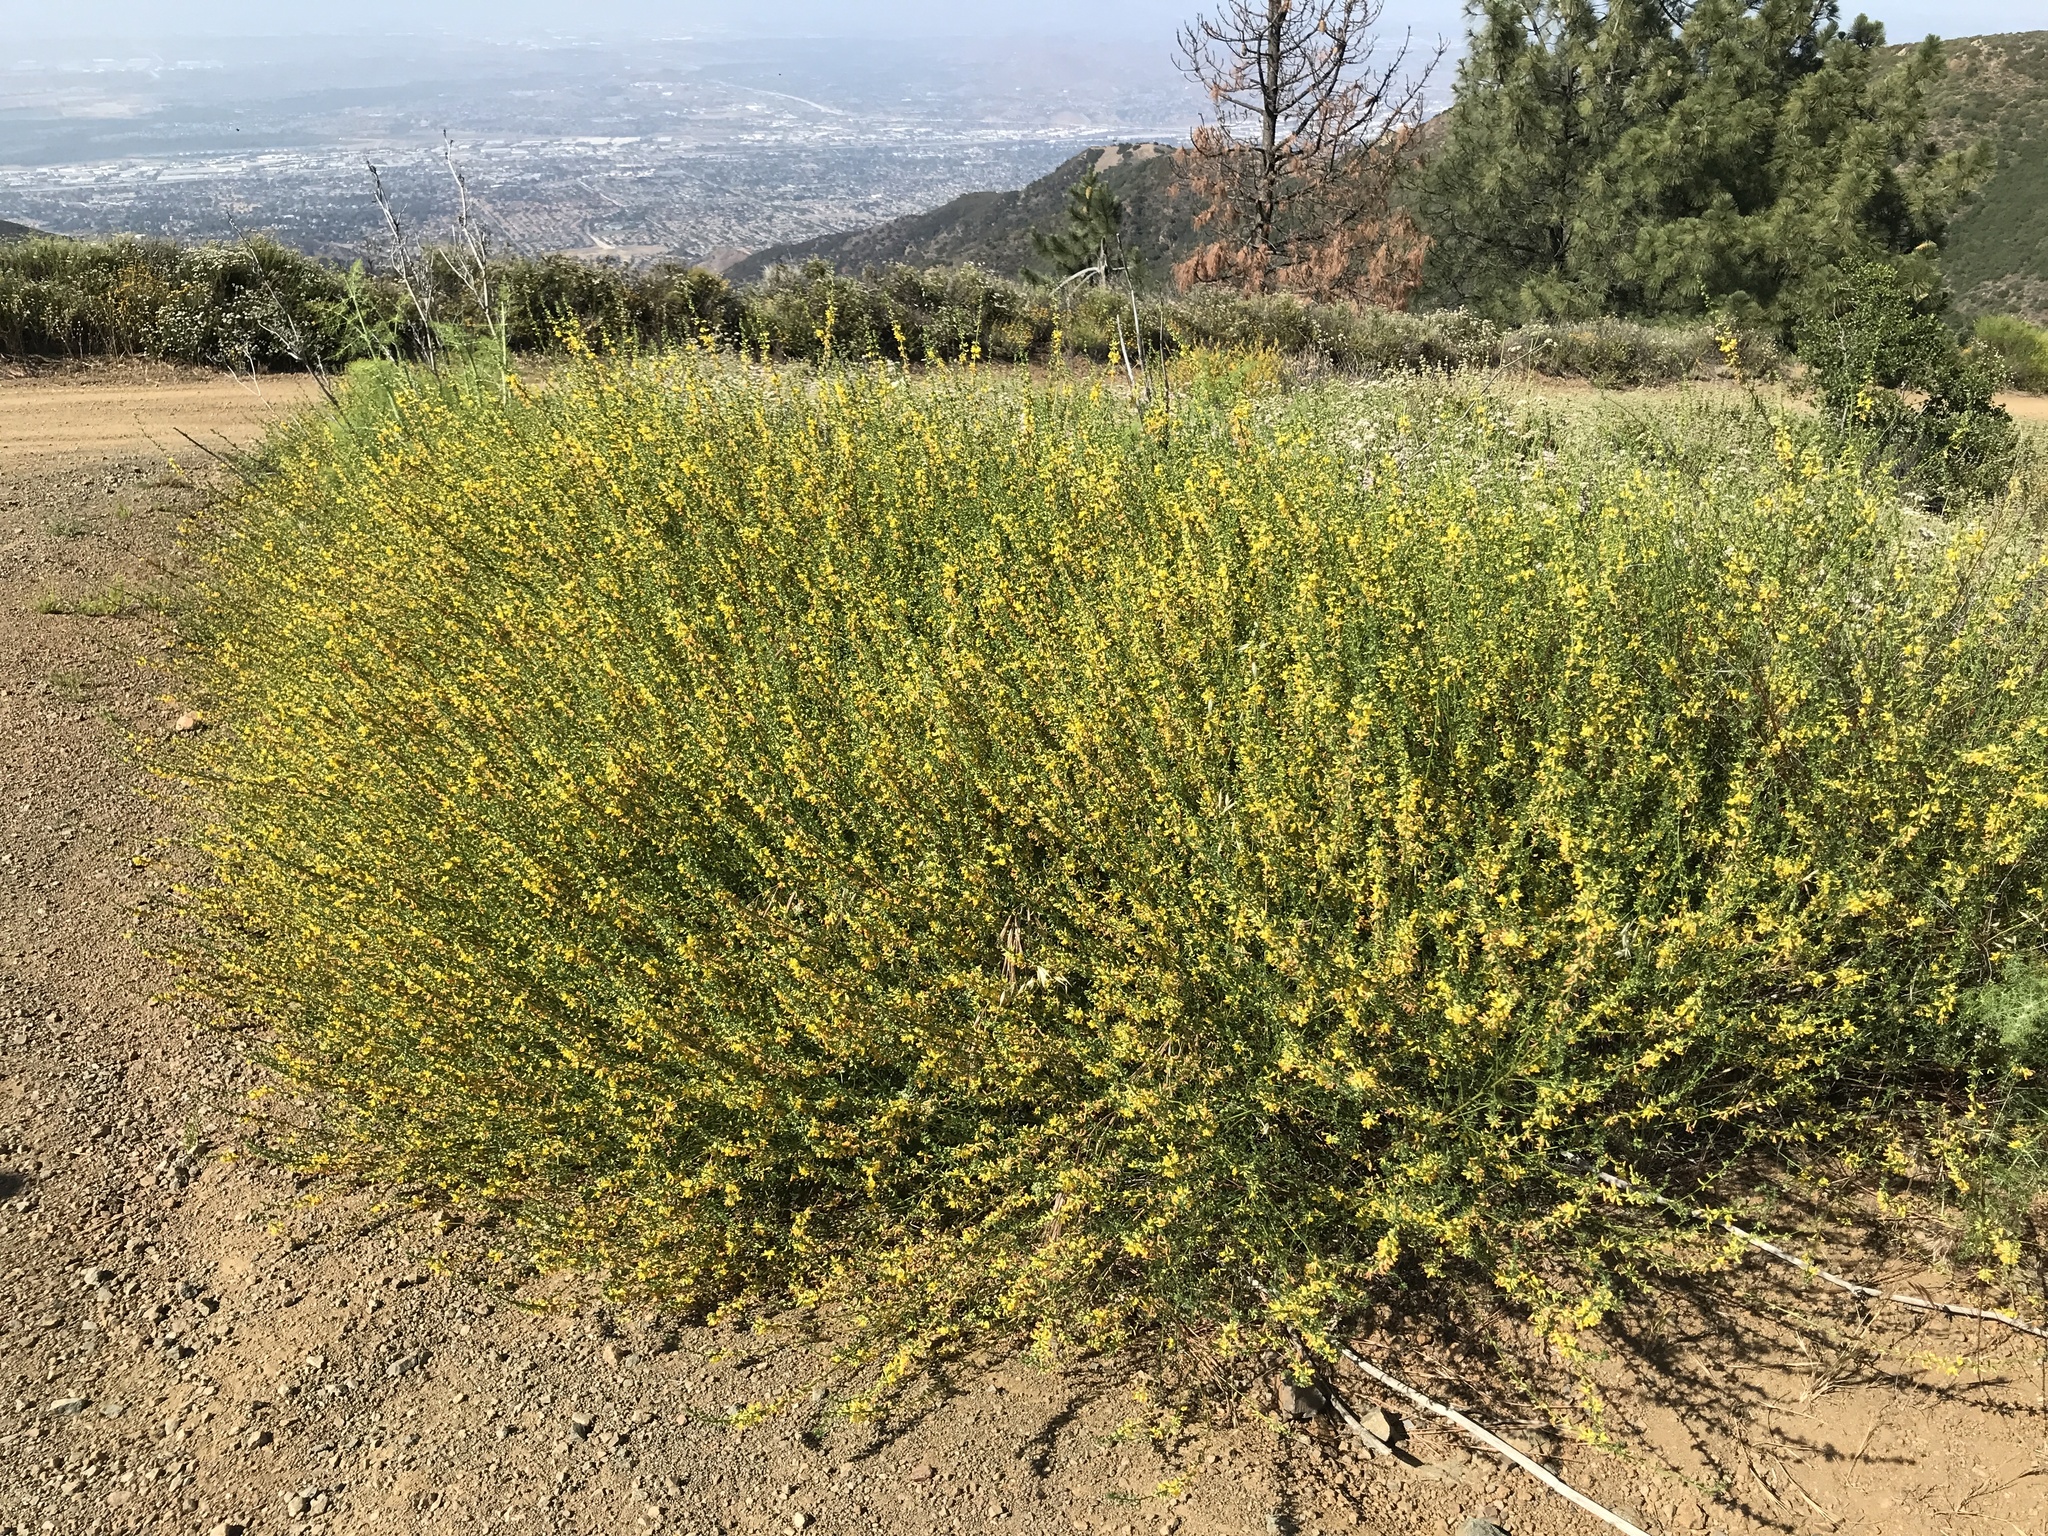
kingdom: Plantae
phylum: Tracheophyta
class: Magnoliopsida
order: Fabales
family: Fabaceae
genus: Acmispon
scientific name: Acmispon glaber
